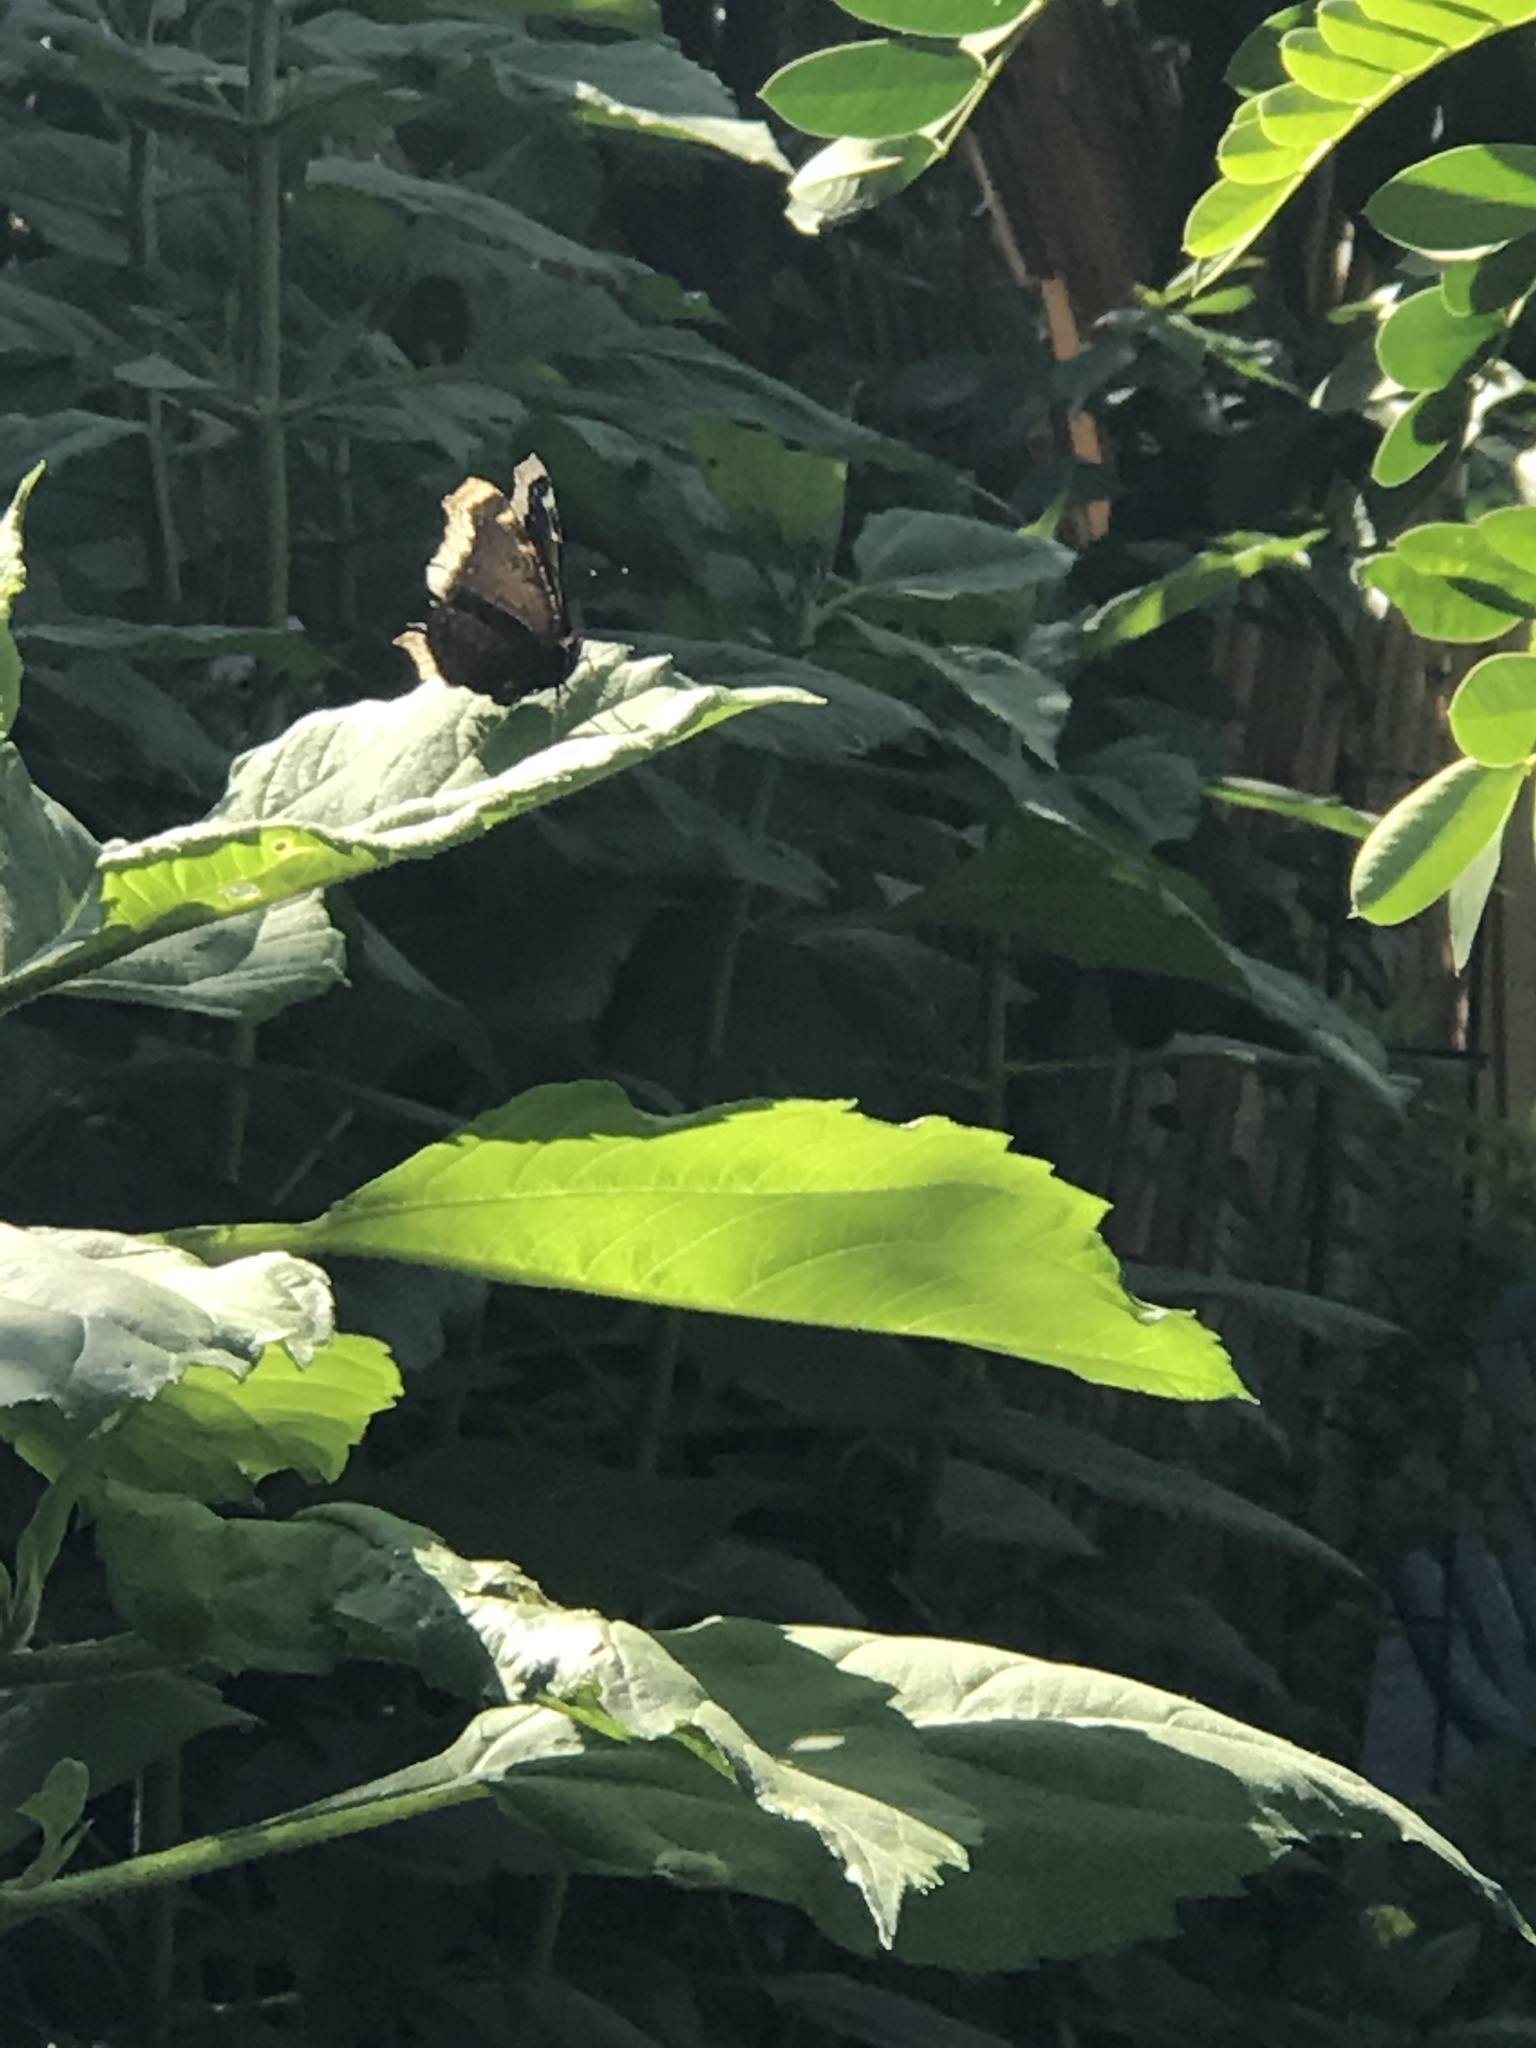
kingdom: Animalia
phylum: Arthropoda
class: Insecta
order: Lepidoptera
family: Nymphalidae
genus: Nymphalis
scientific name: Nymphalis antiopa
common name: Camberwell beauty
